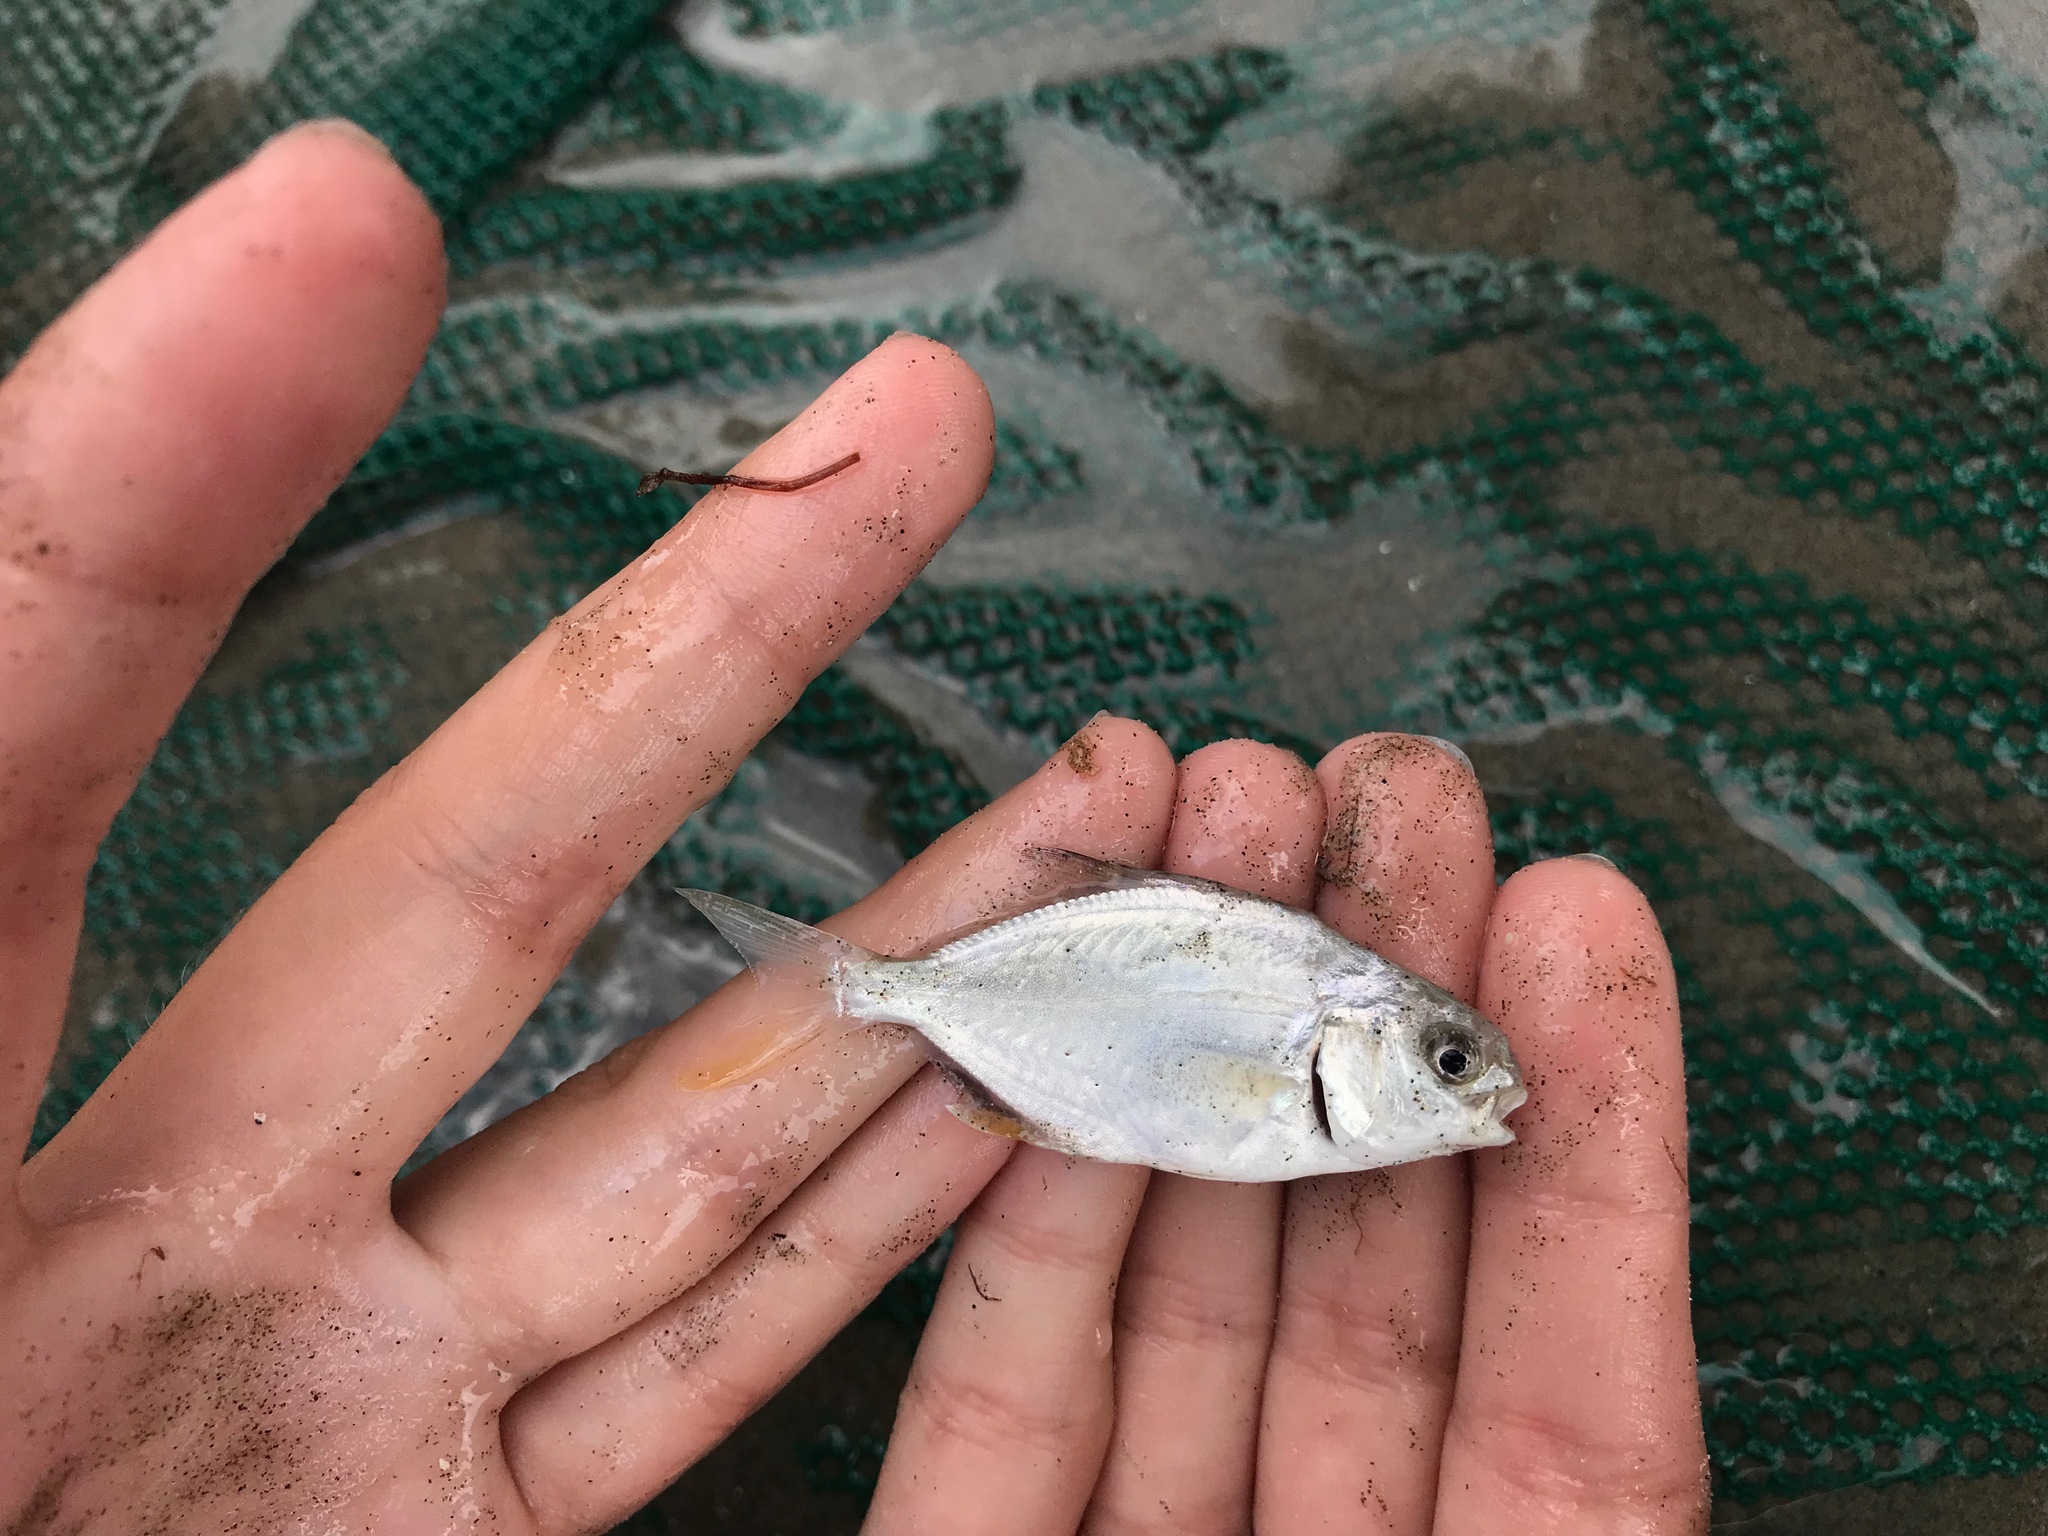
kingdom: Animalia
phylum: Chordata
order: Perciformes
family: Carangidae
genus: Trachinotus
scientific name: Trachinotus carolinus
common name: Florida pompano
